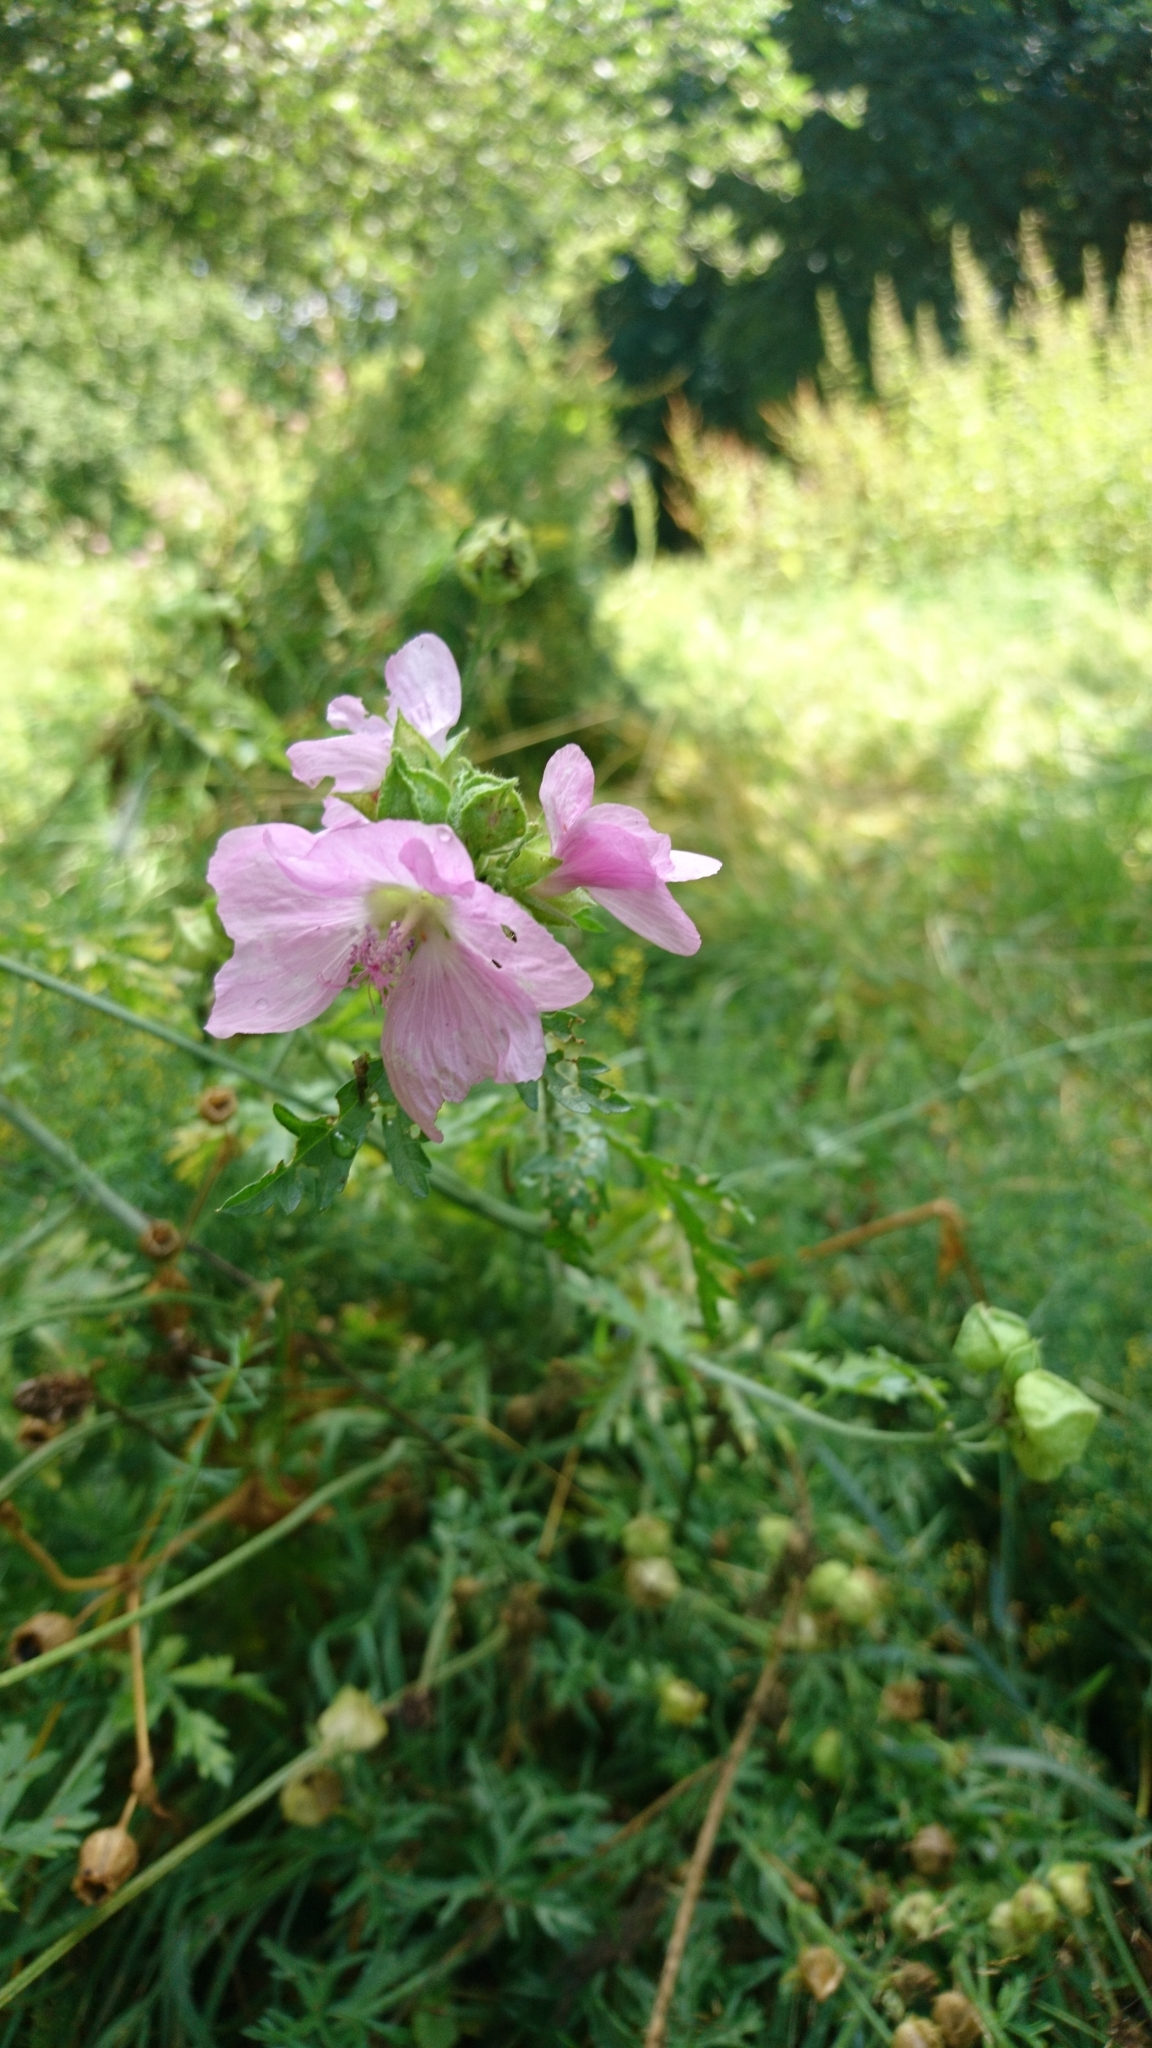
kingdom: Plantae
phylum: Tracheophyta
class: Magnoliopsida
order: Malvales
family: Malvaceae
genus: Malva
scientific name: Malva moschata
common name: Musk mallow
